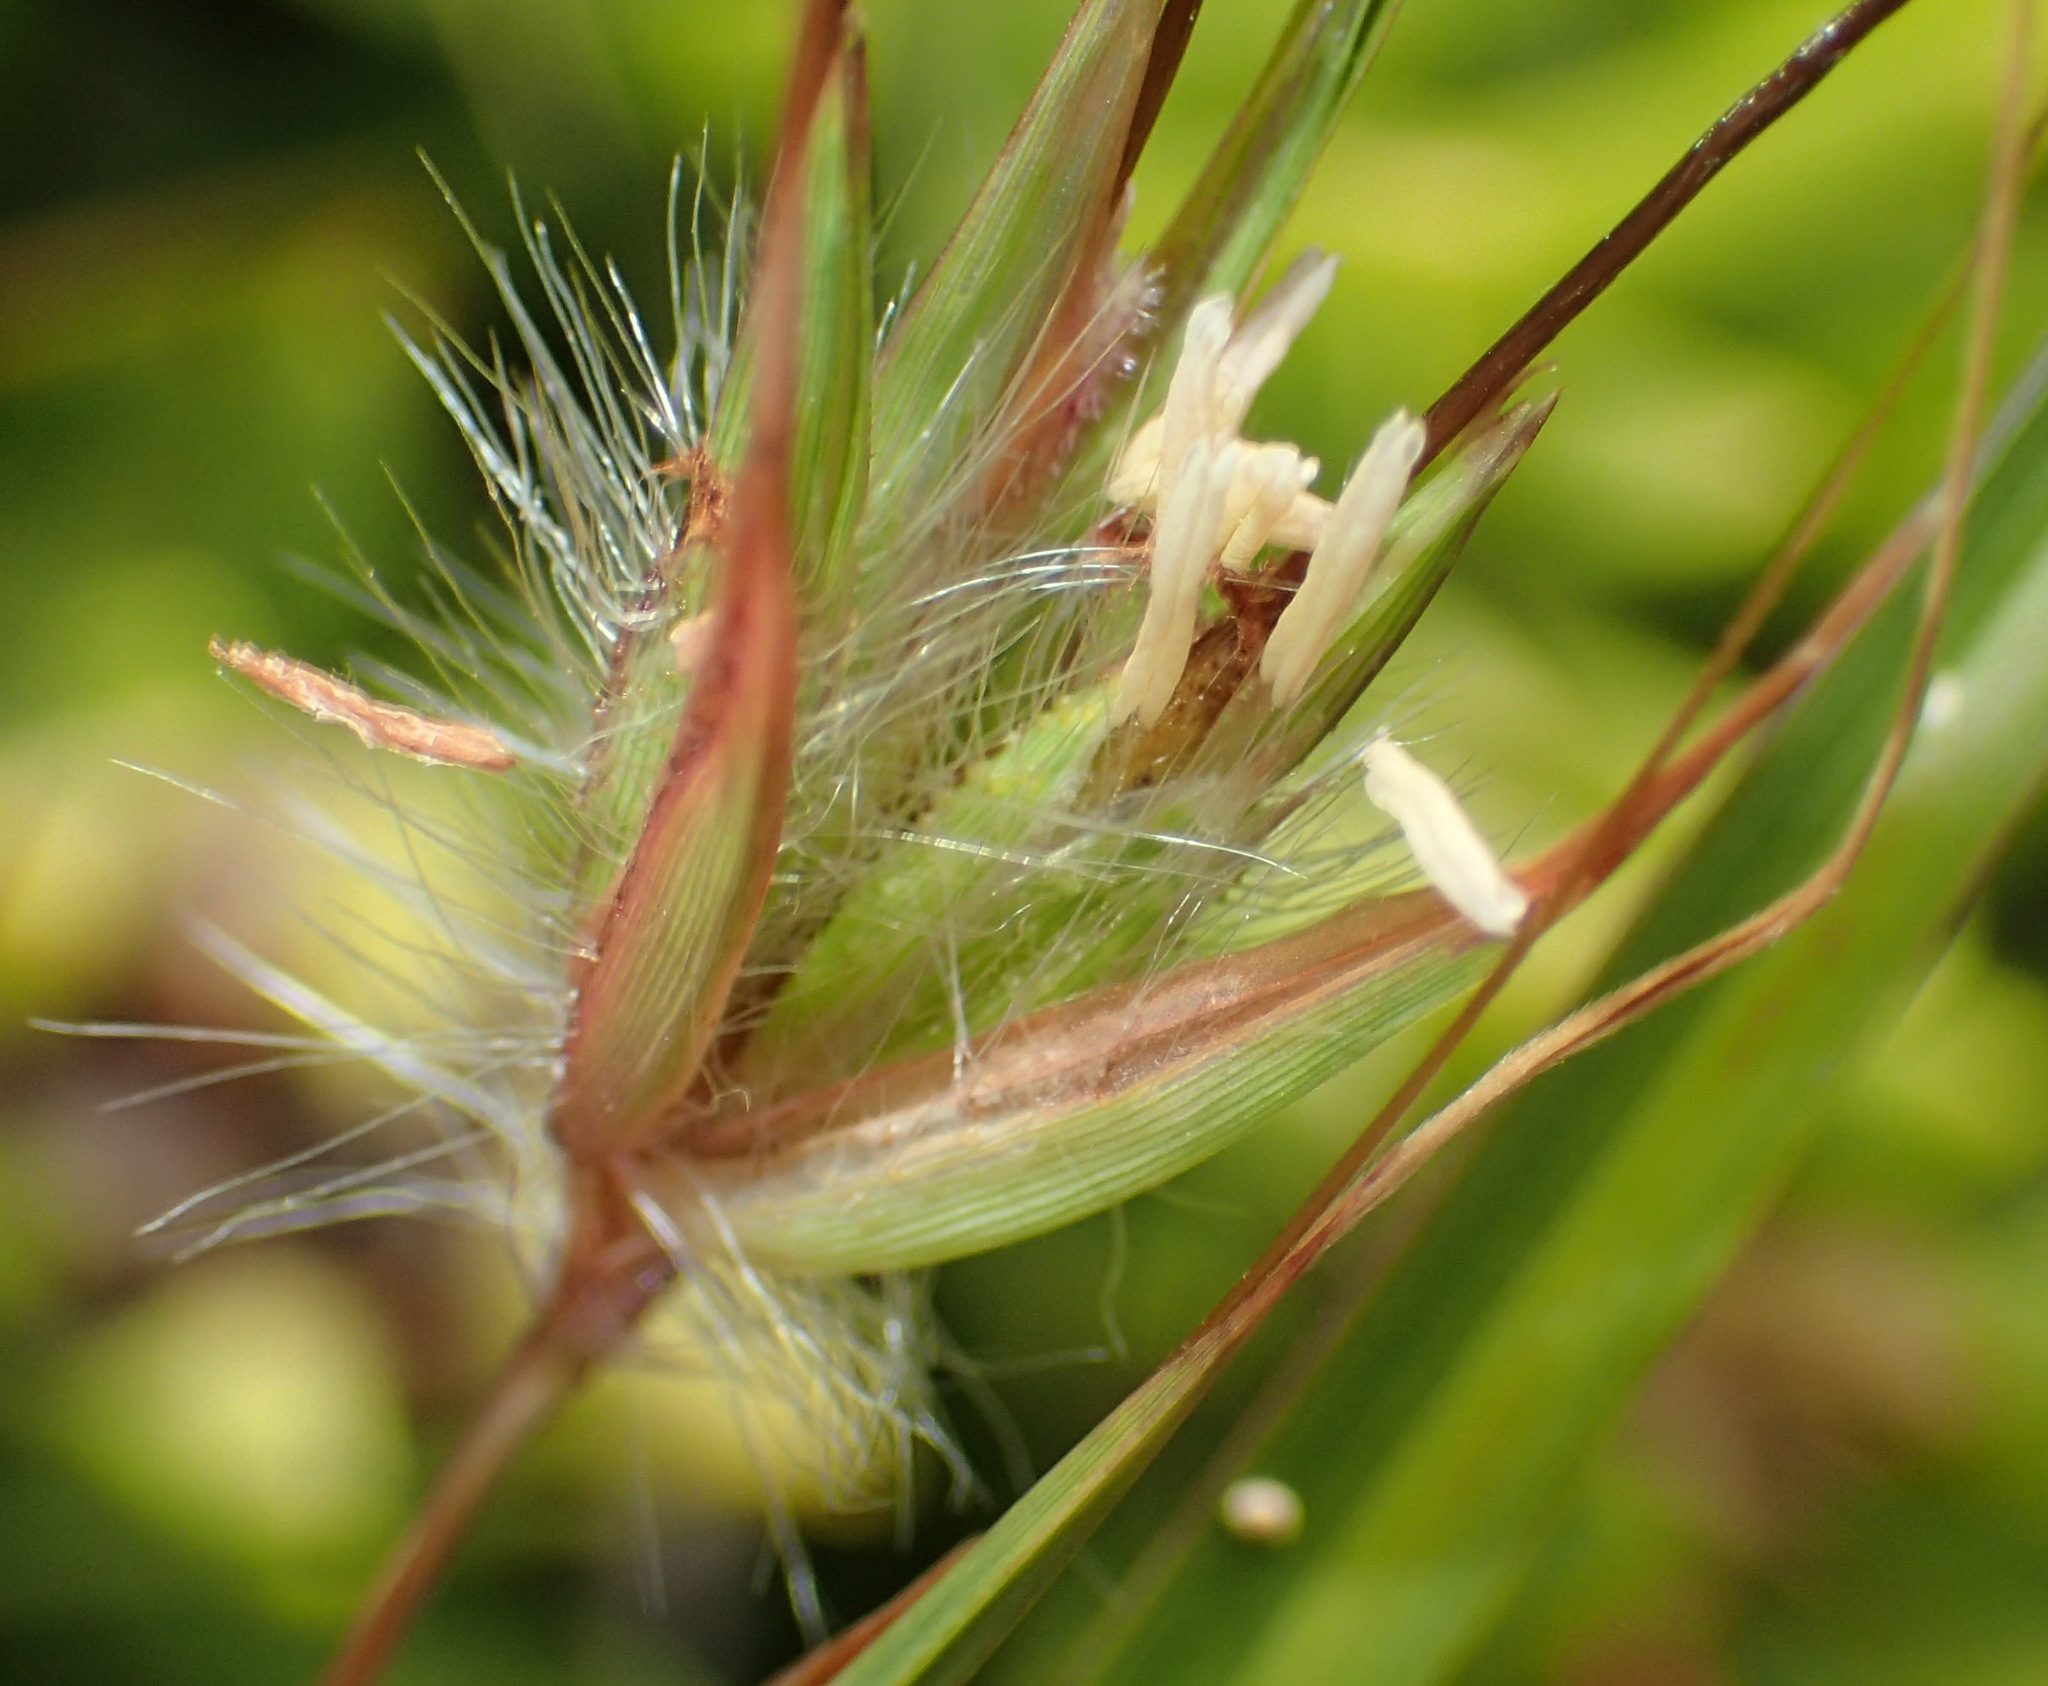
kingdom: Plantae
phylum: Tracheophyta
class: Liliopsida
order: Poales
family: Poaceae
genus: Themeda
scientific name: Themeda triandra
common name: Kangaroo grass
